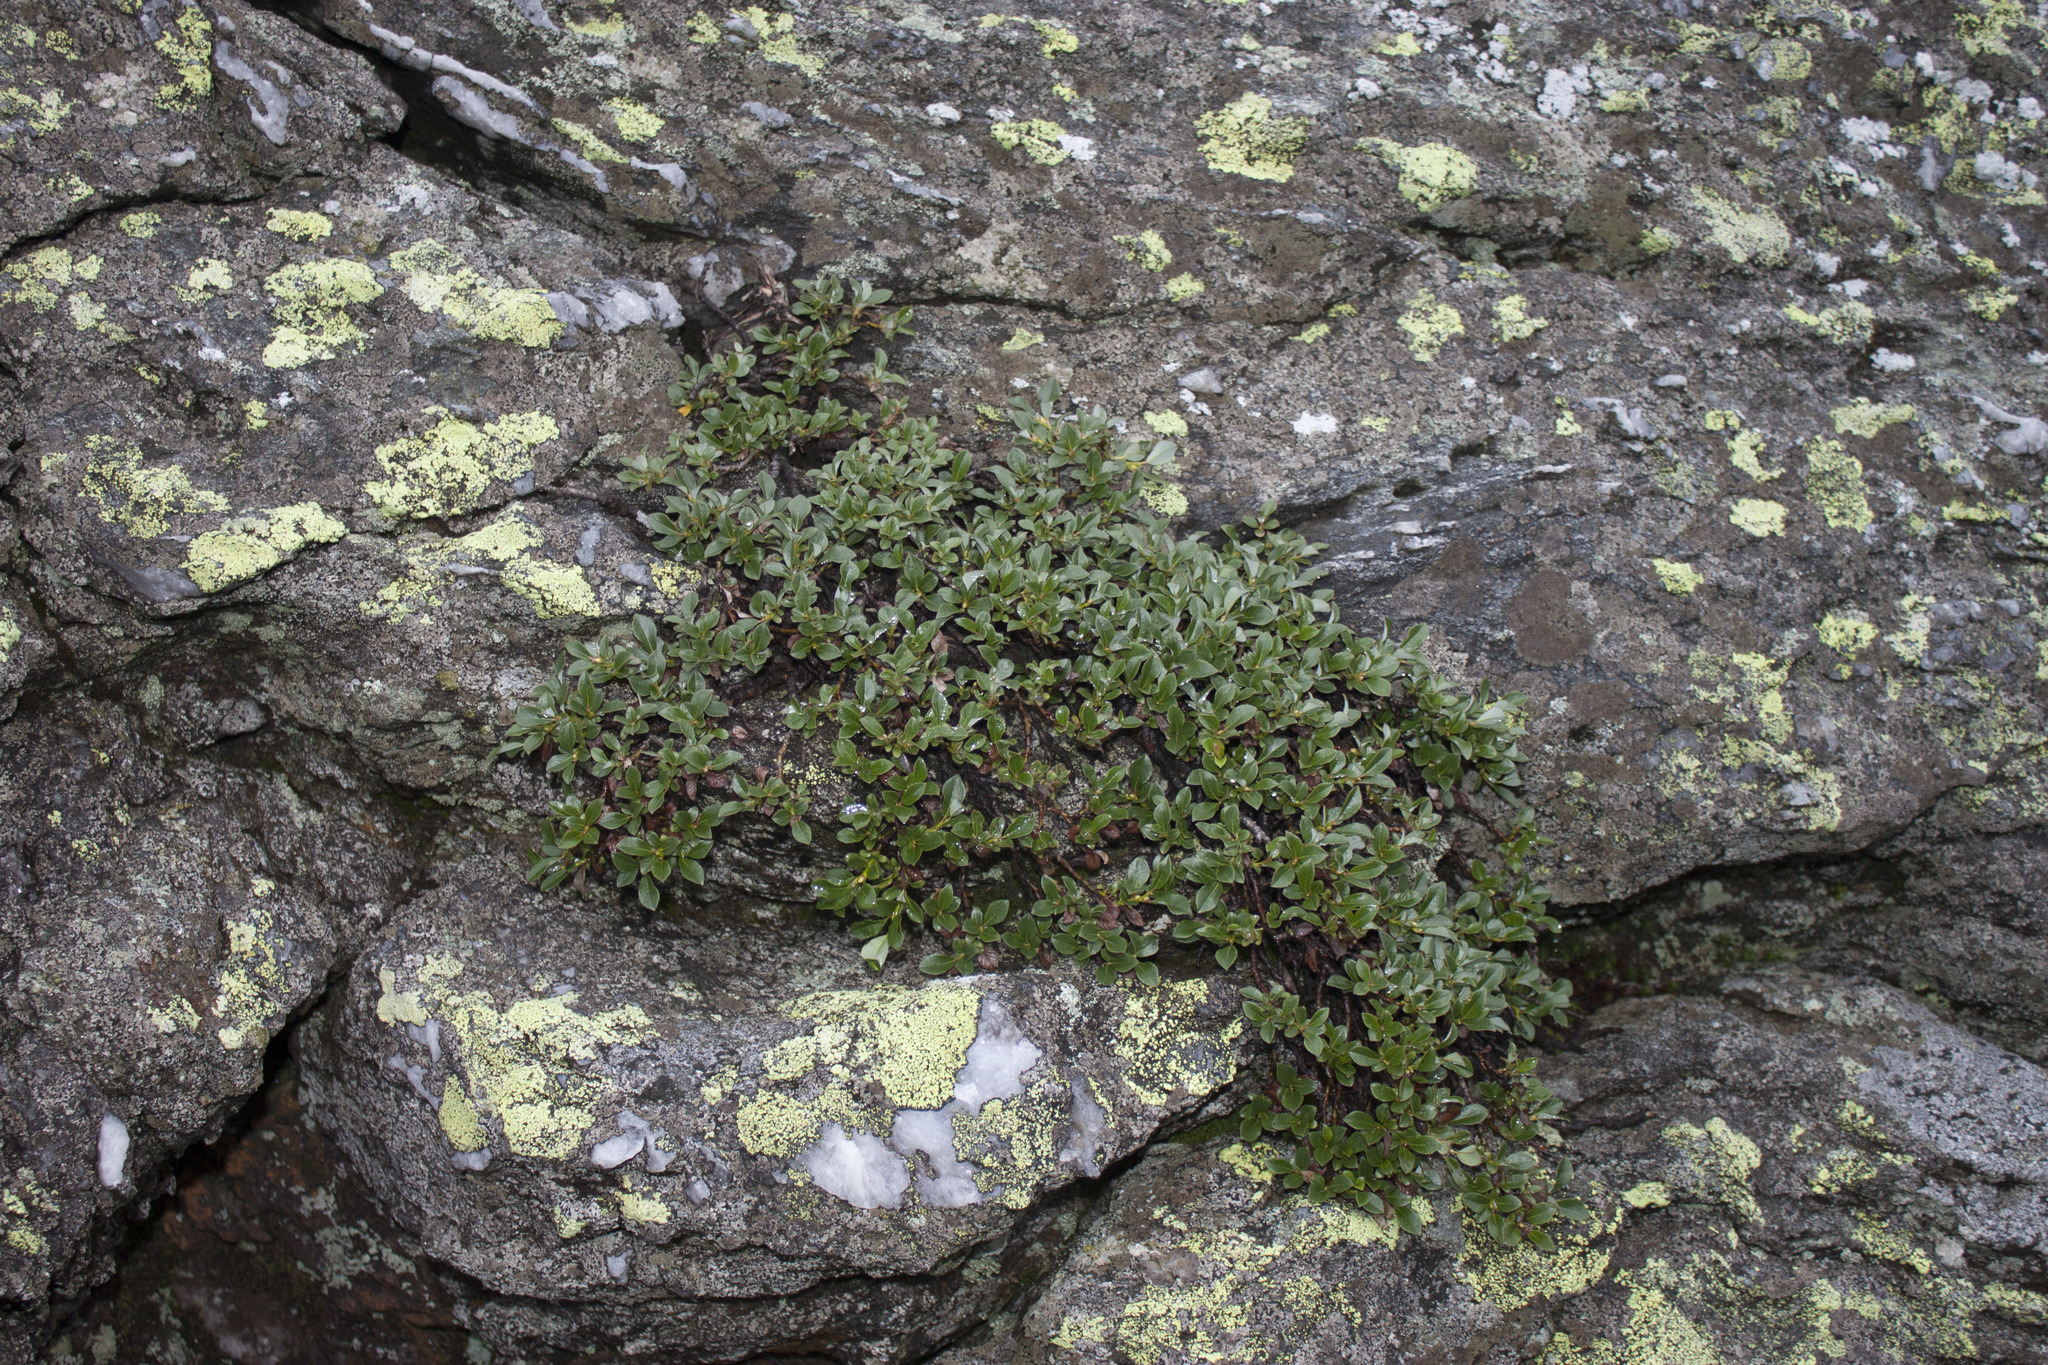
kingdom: Plantae
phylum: Tracheophyta
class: Magnoliopsida
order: Malpighiales
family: Salicaceae
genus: Salix
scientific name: Salix uva-ursi
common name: Bearberry willow
